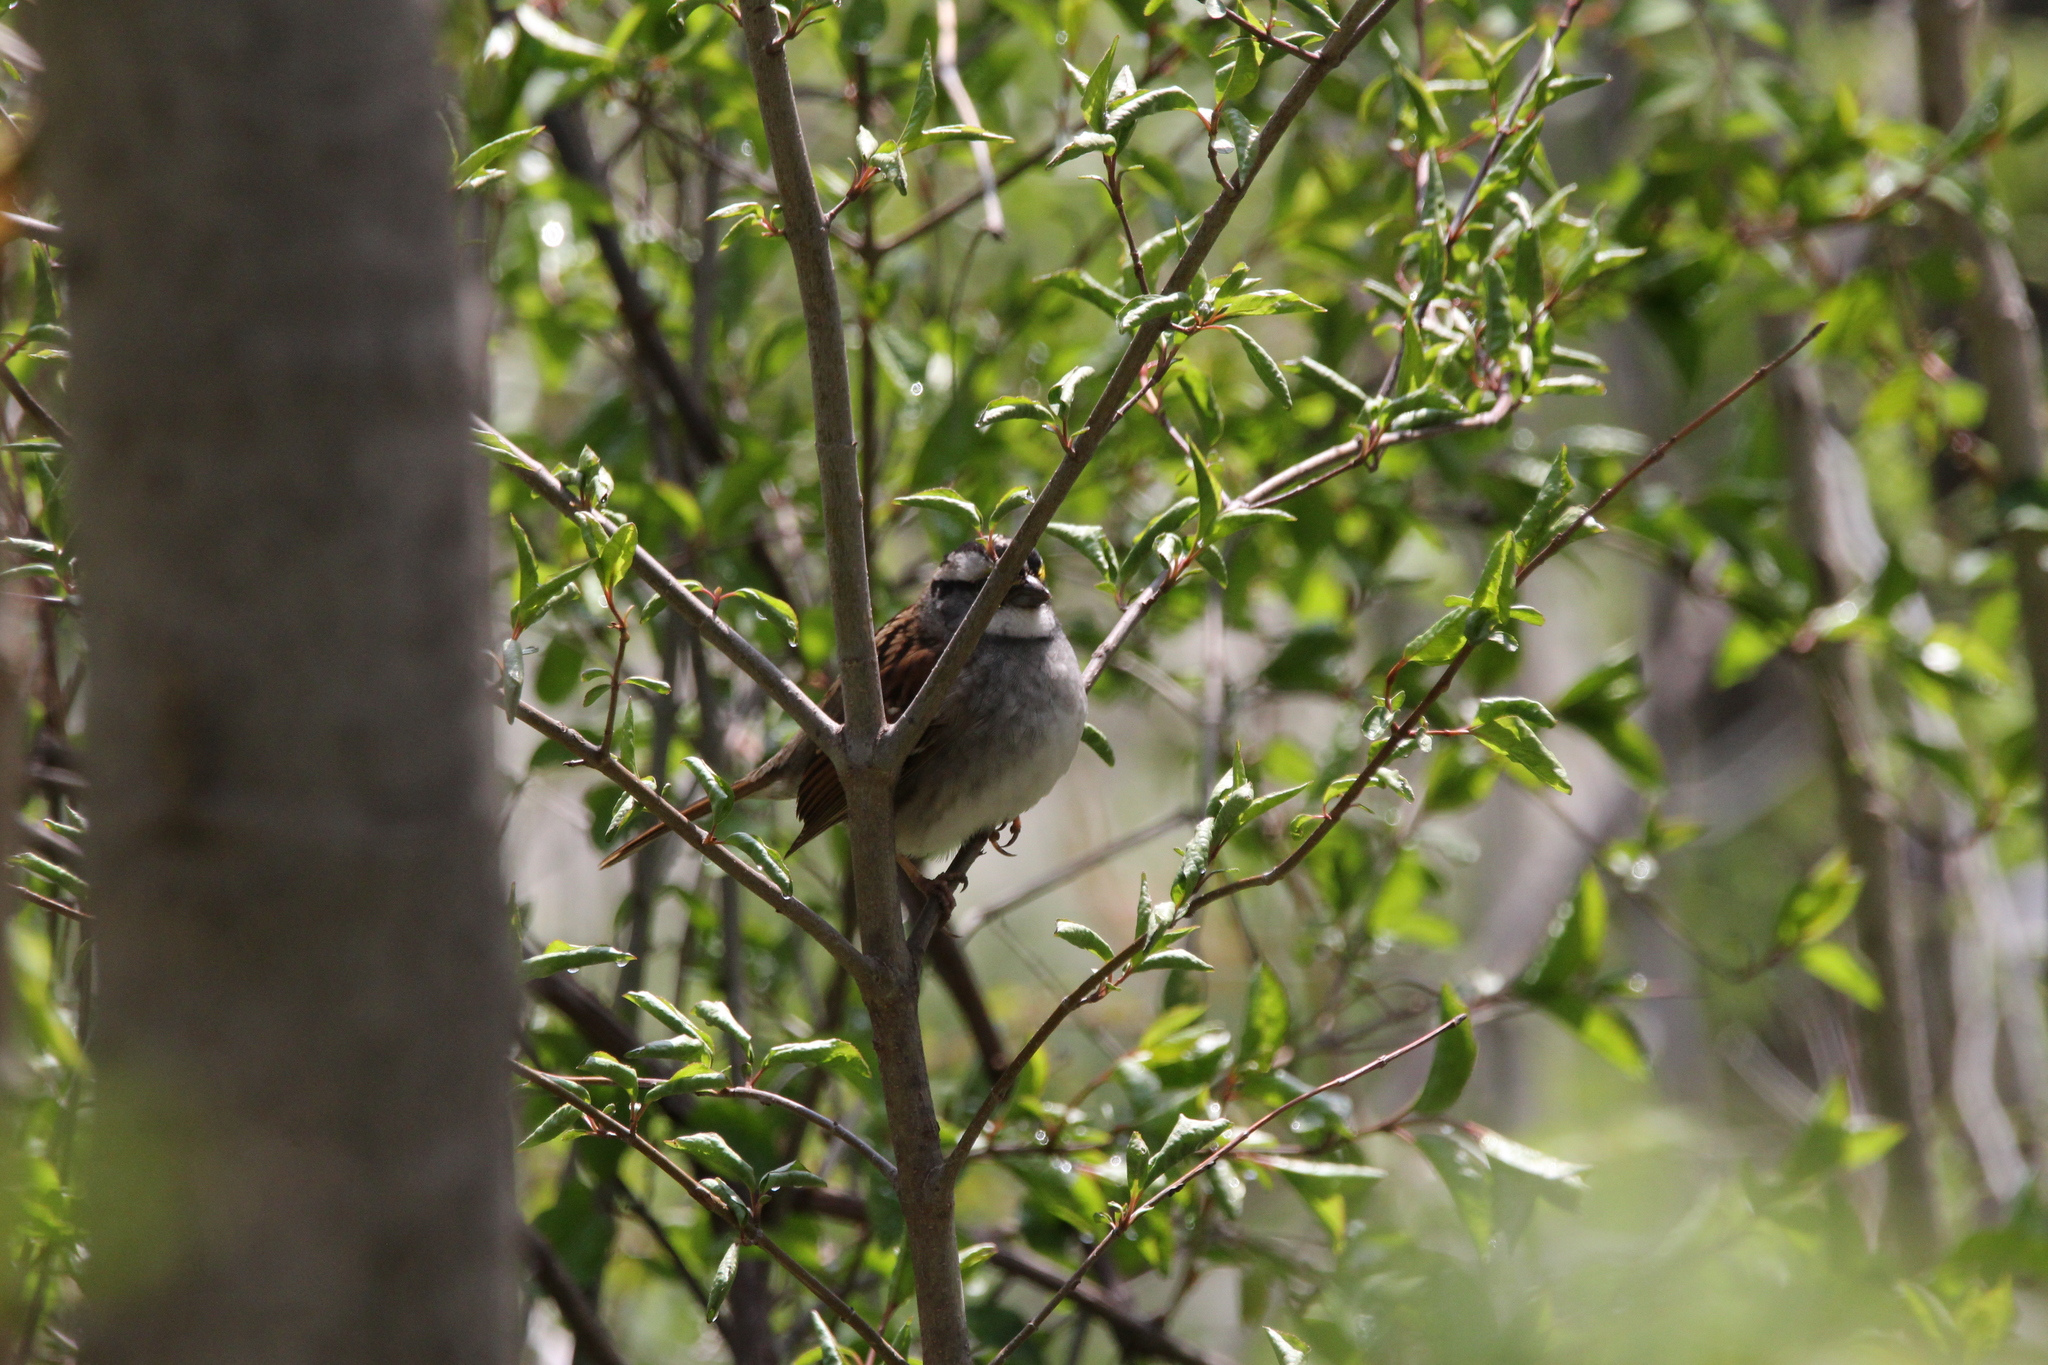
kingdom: Animalia
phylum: Chordata
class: Aves
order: Passeriformes
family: Passerellidae
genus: Zonotrichia
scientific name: Zonotrichia albicollis
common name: White-throated sparrow
